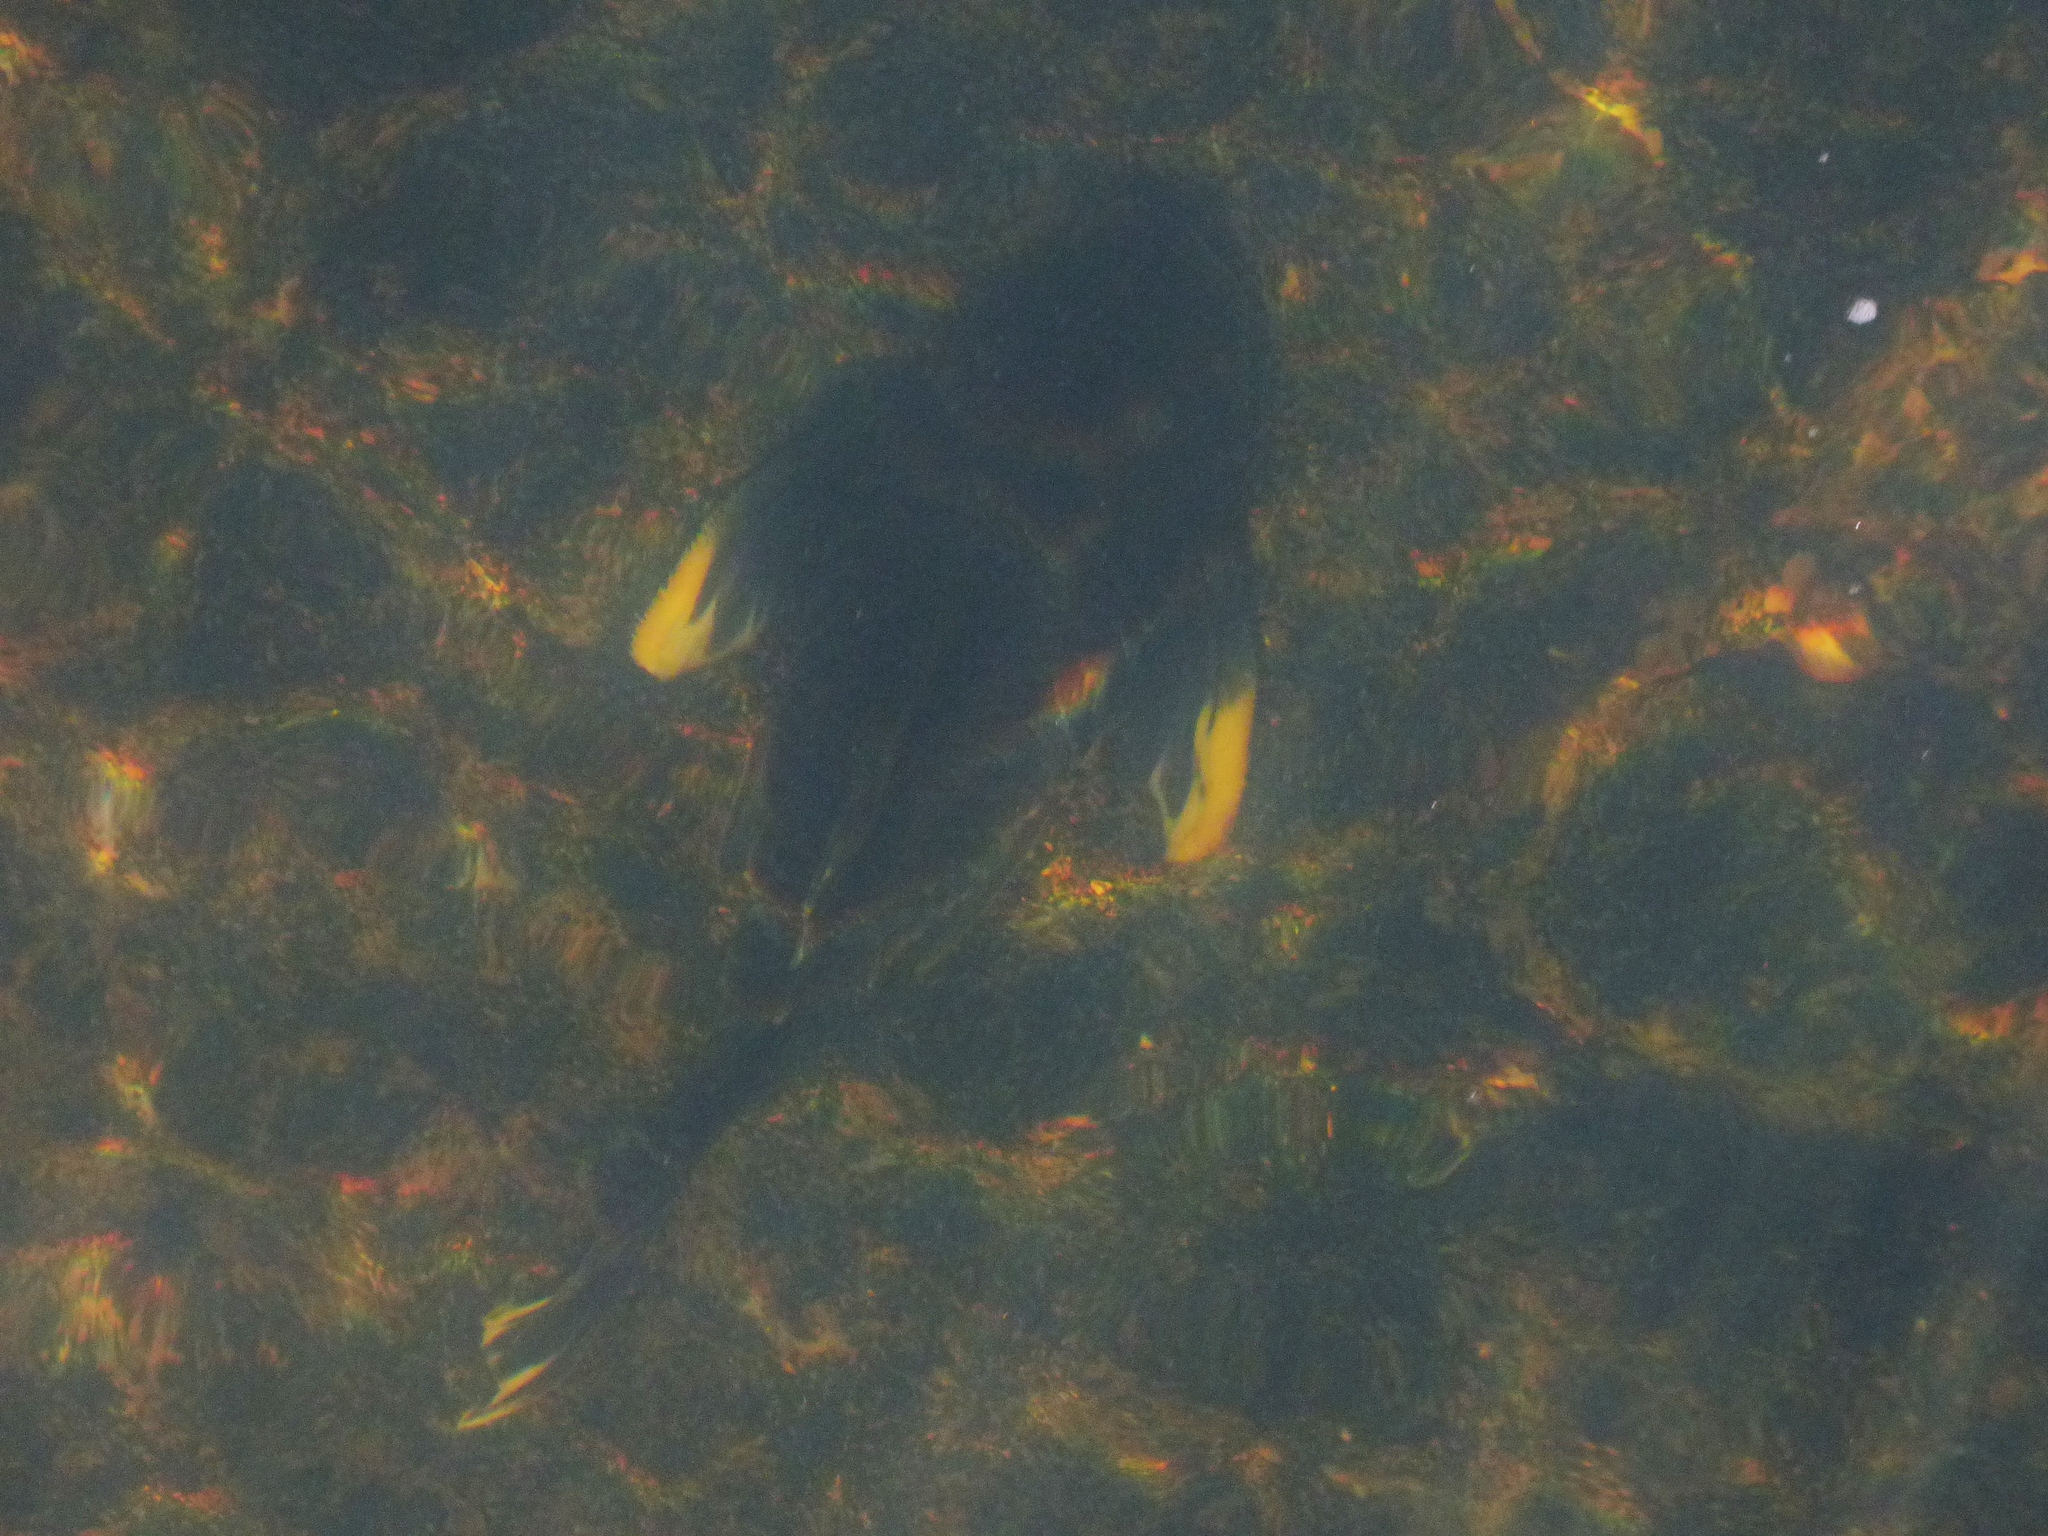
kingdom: Animalia
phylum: Chordata
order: Siluriformes
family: Loricariidae
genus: Hypostomus
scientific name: Hypostomus myersi
